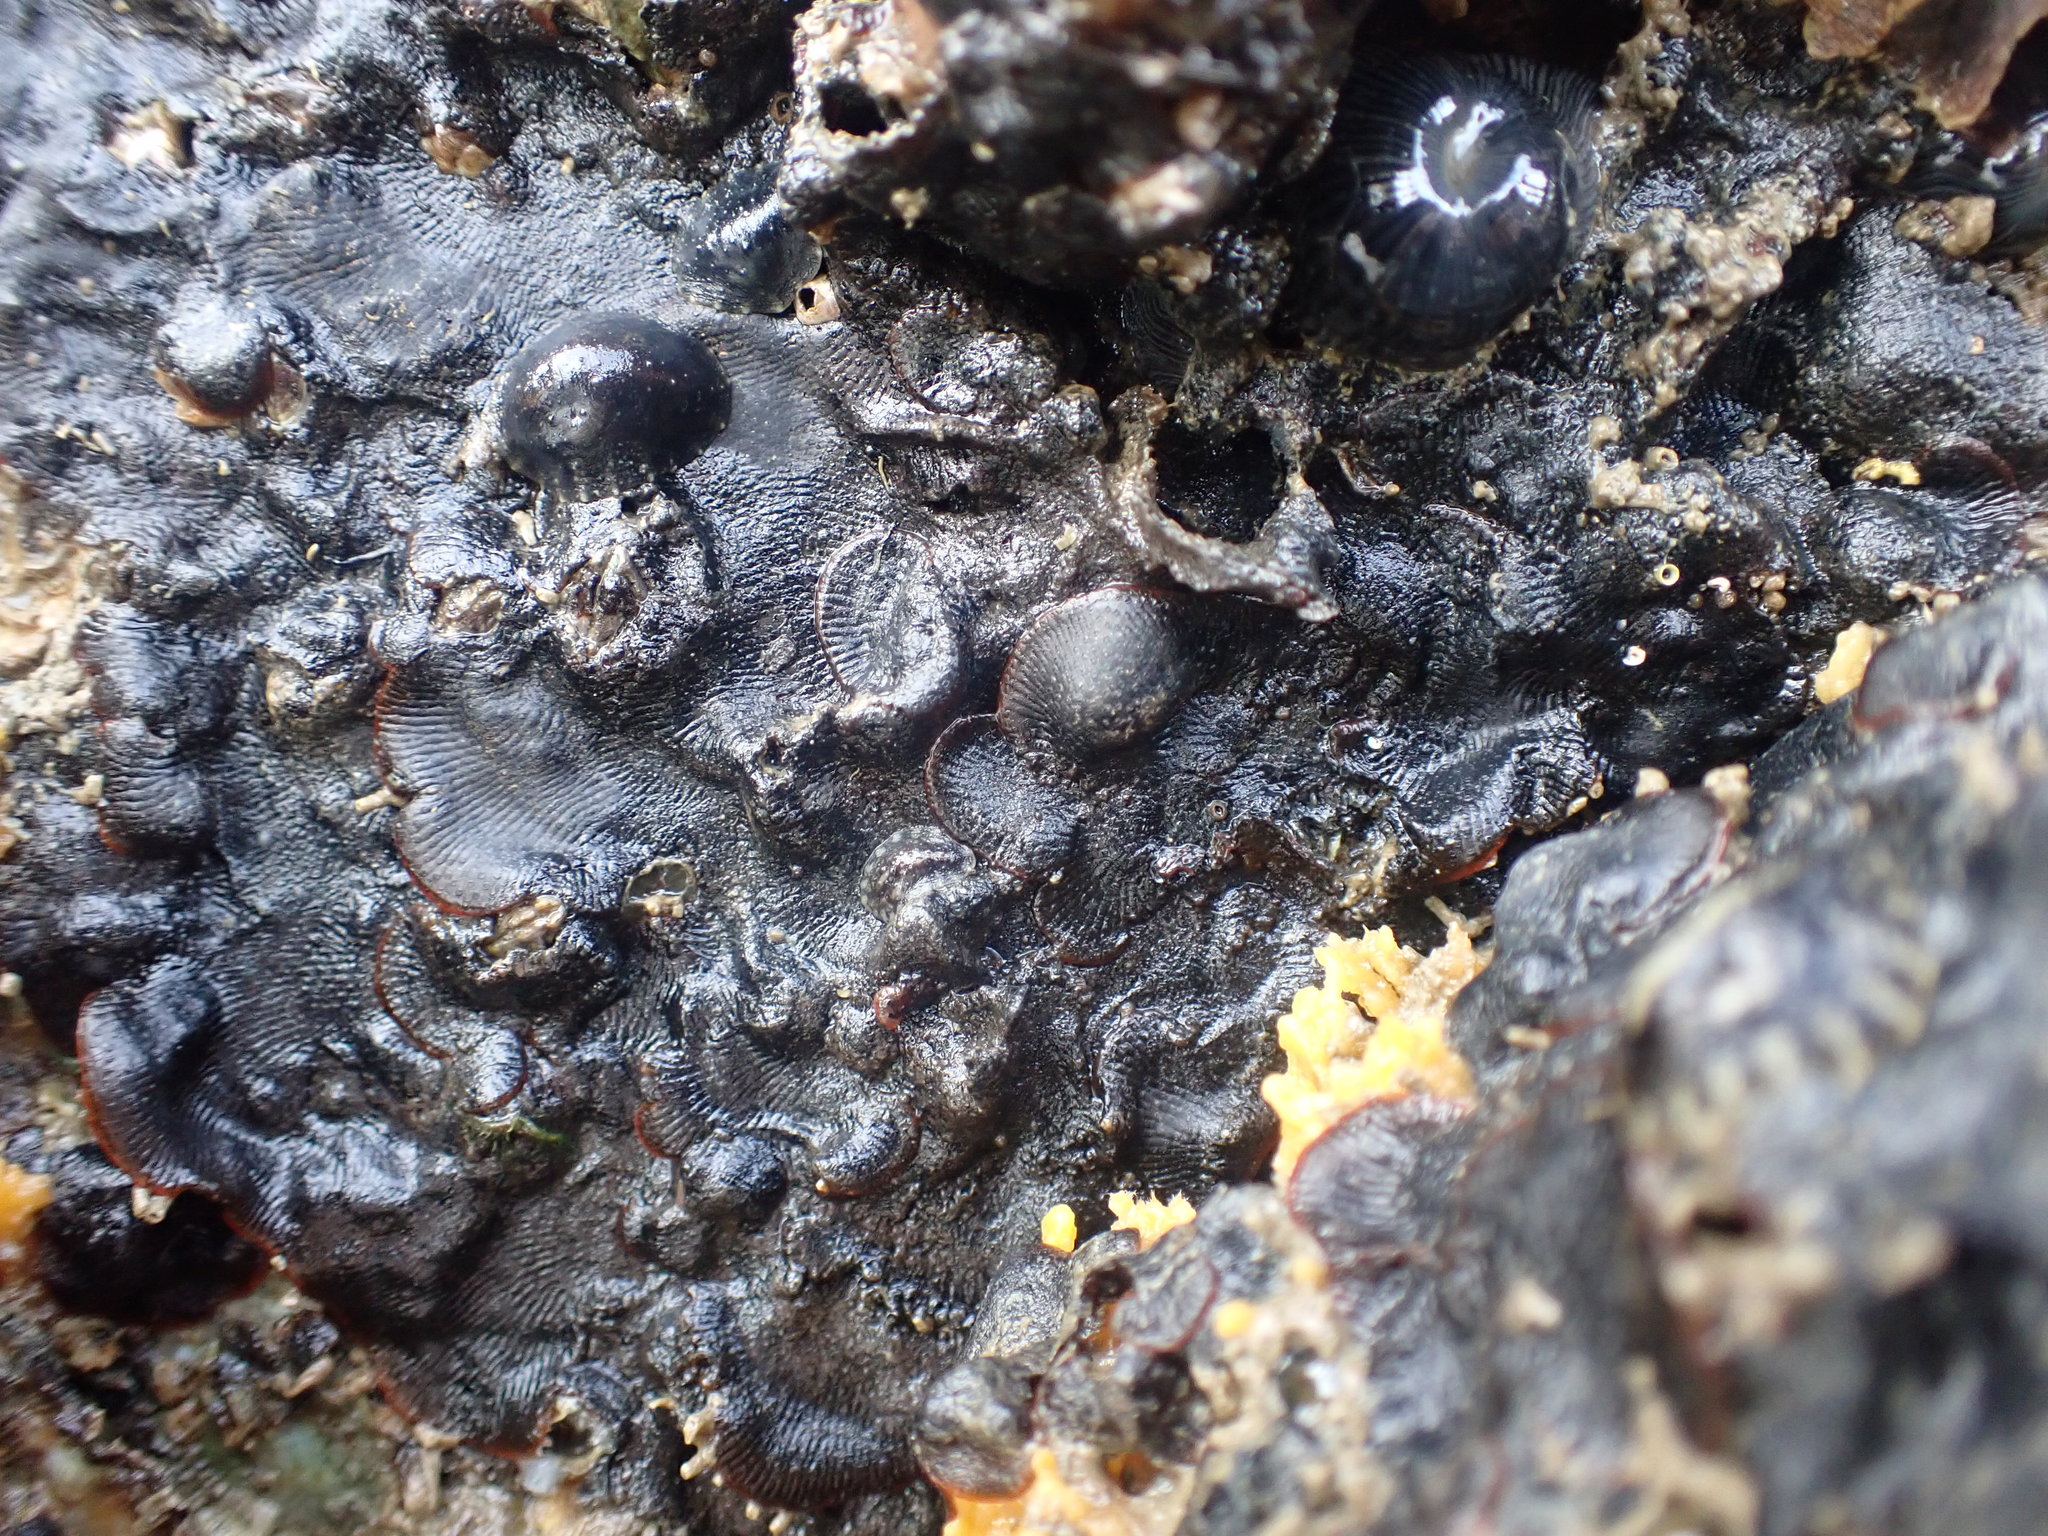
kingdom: Animalia
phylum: Bryozoa
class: Gymnolaemata
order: Cheilostomatida
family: Watersiporidae
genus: Watersipora
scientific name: Watersipora subatra
